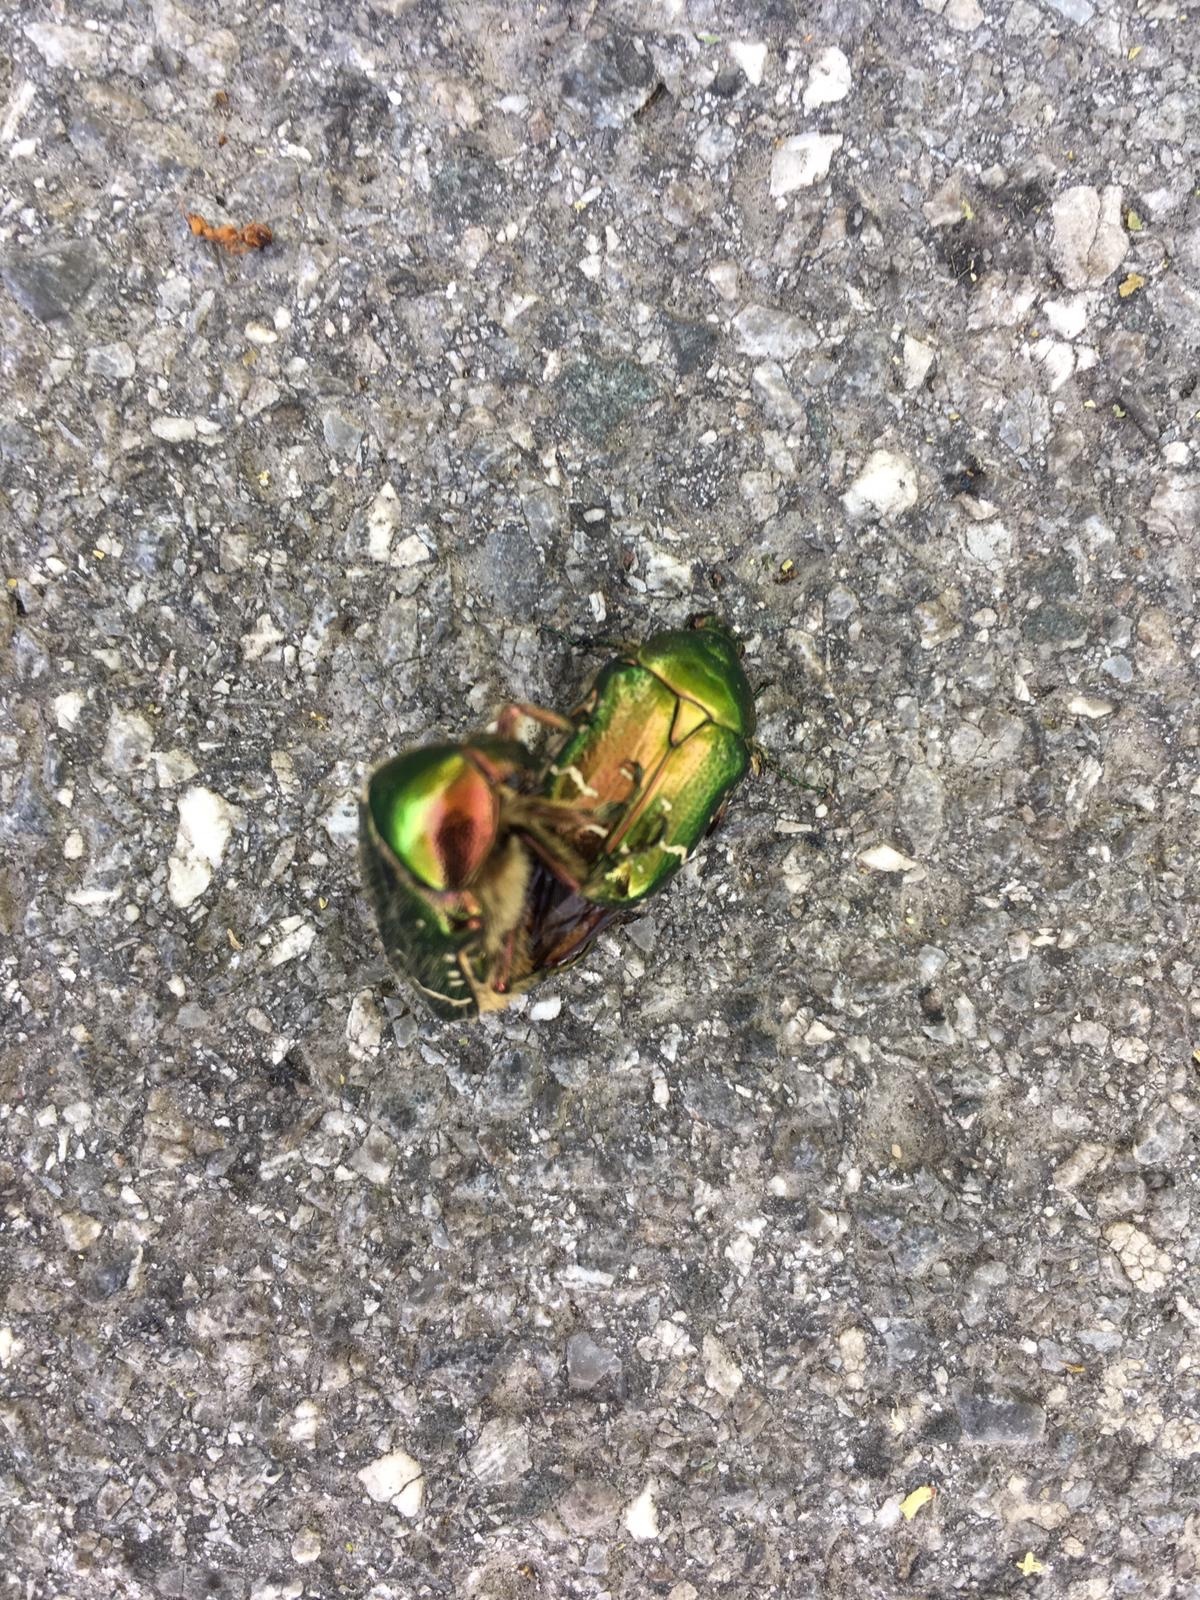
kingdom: Animalia
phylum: Arthropoda
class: Insecta
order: Coleoptera
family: Scarabaeidae
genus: Cetonia
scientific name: Cetonia aurata
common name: Rose chafer
